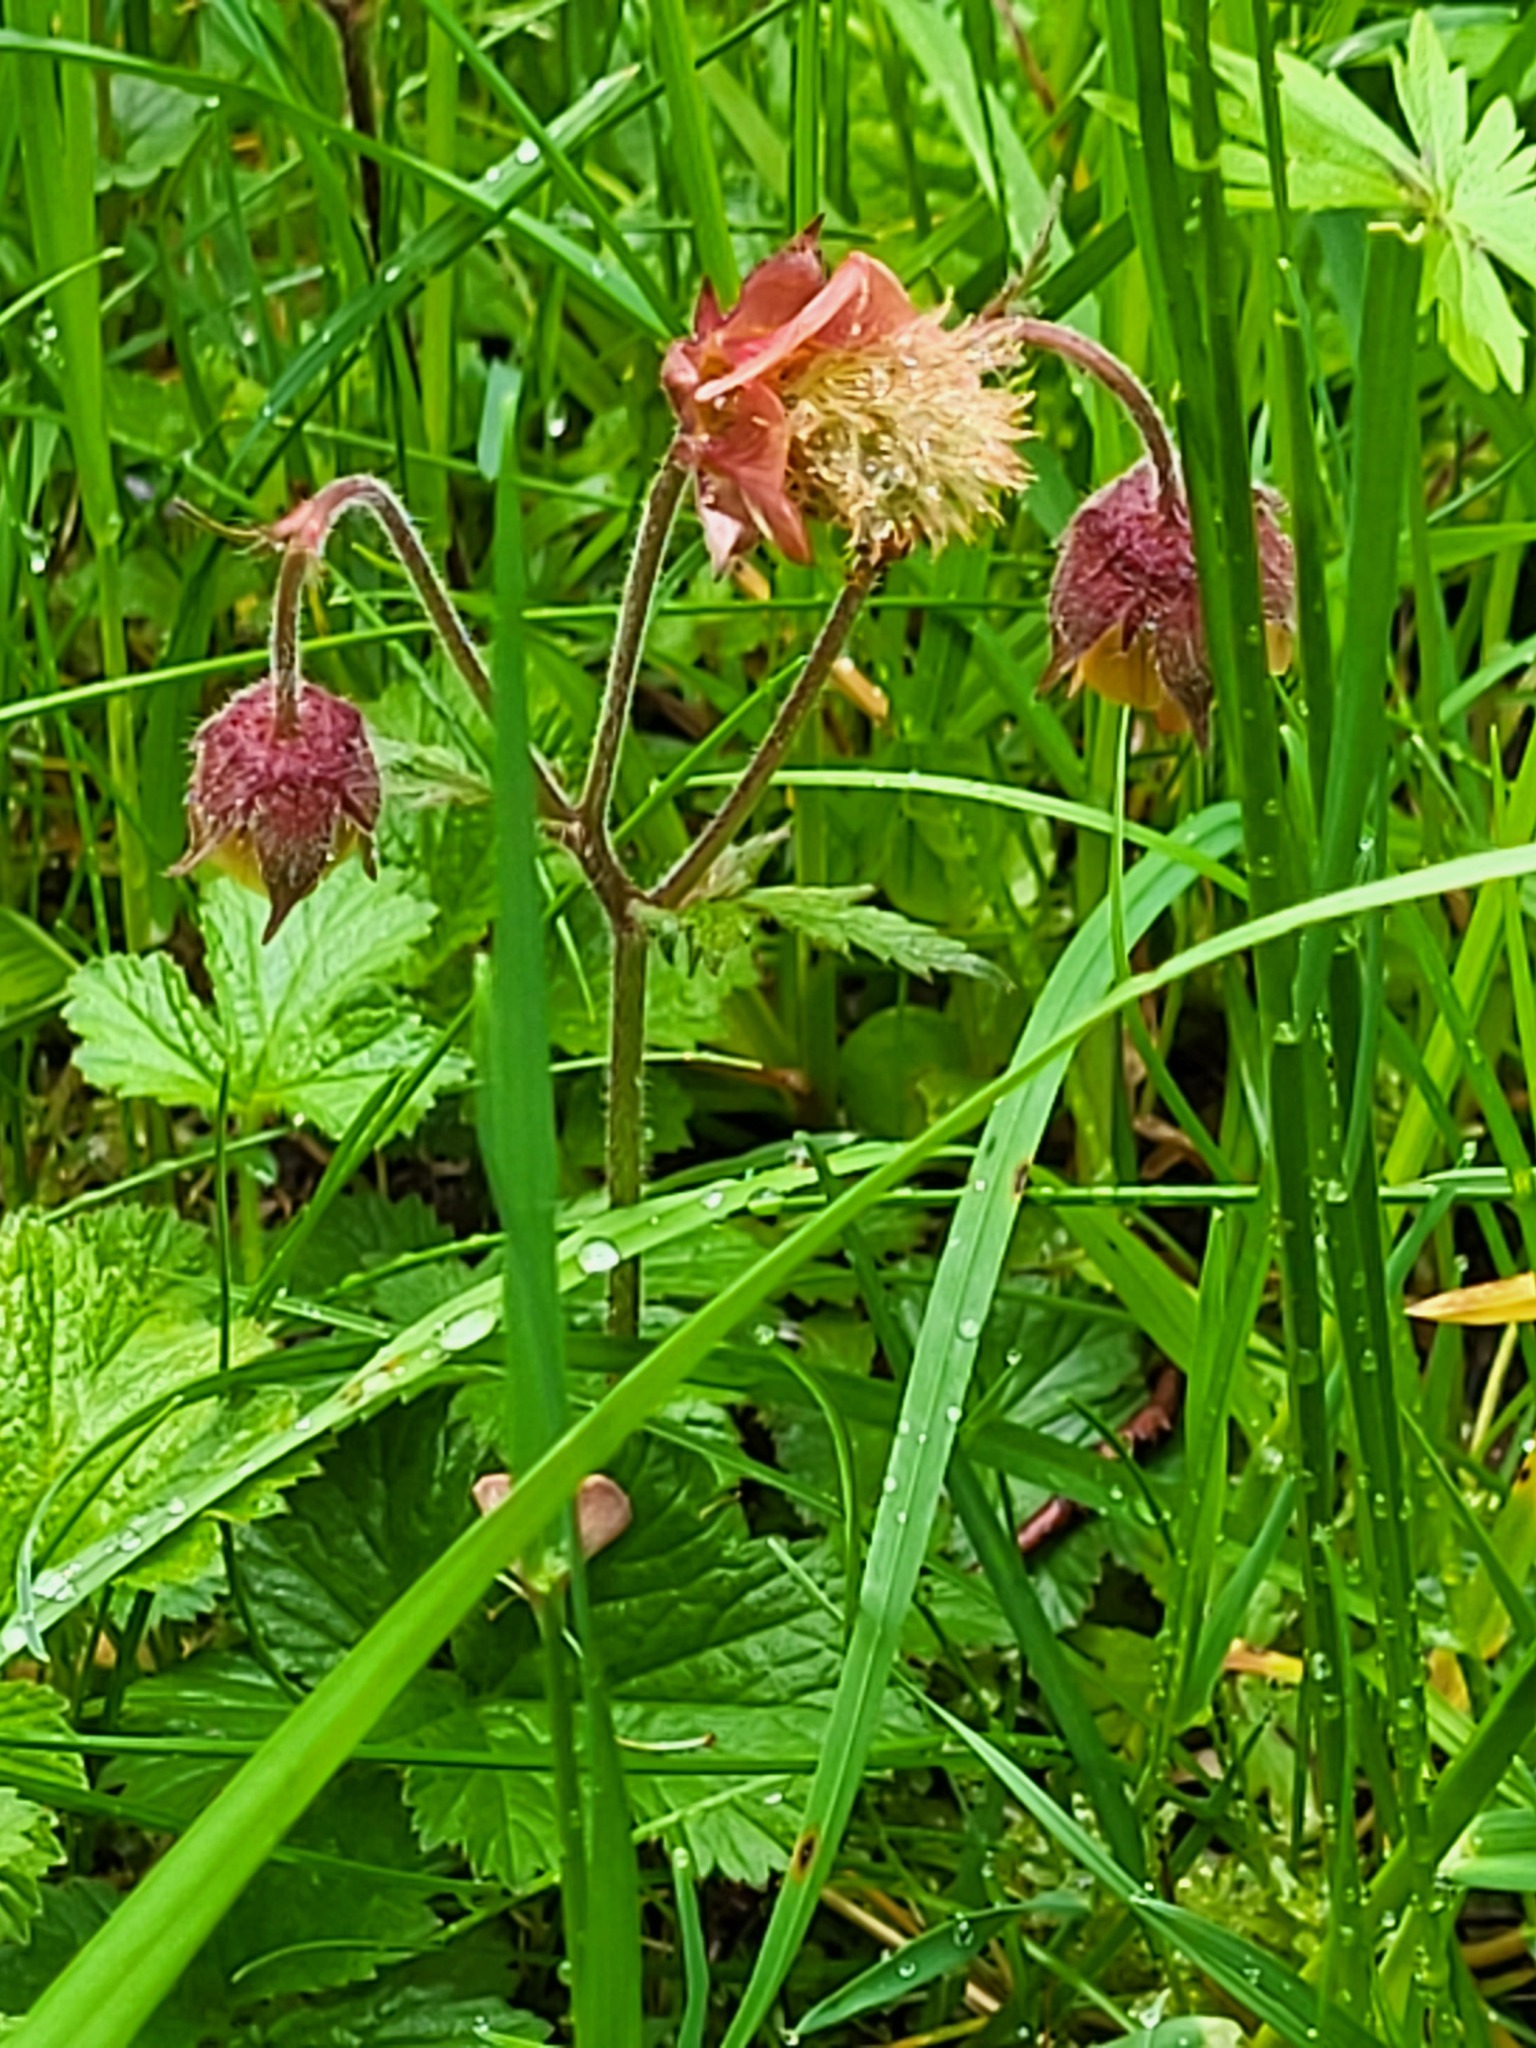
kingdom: Plantae
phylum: Tracheophyta
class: Magnoliopsida
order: Rosales
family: Rosaceae
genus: Geum
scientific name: Geum rivale
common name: Water avens
